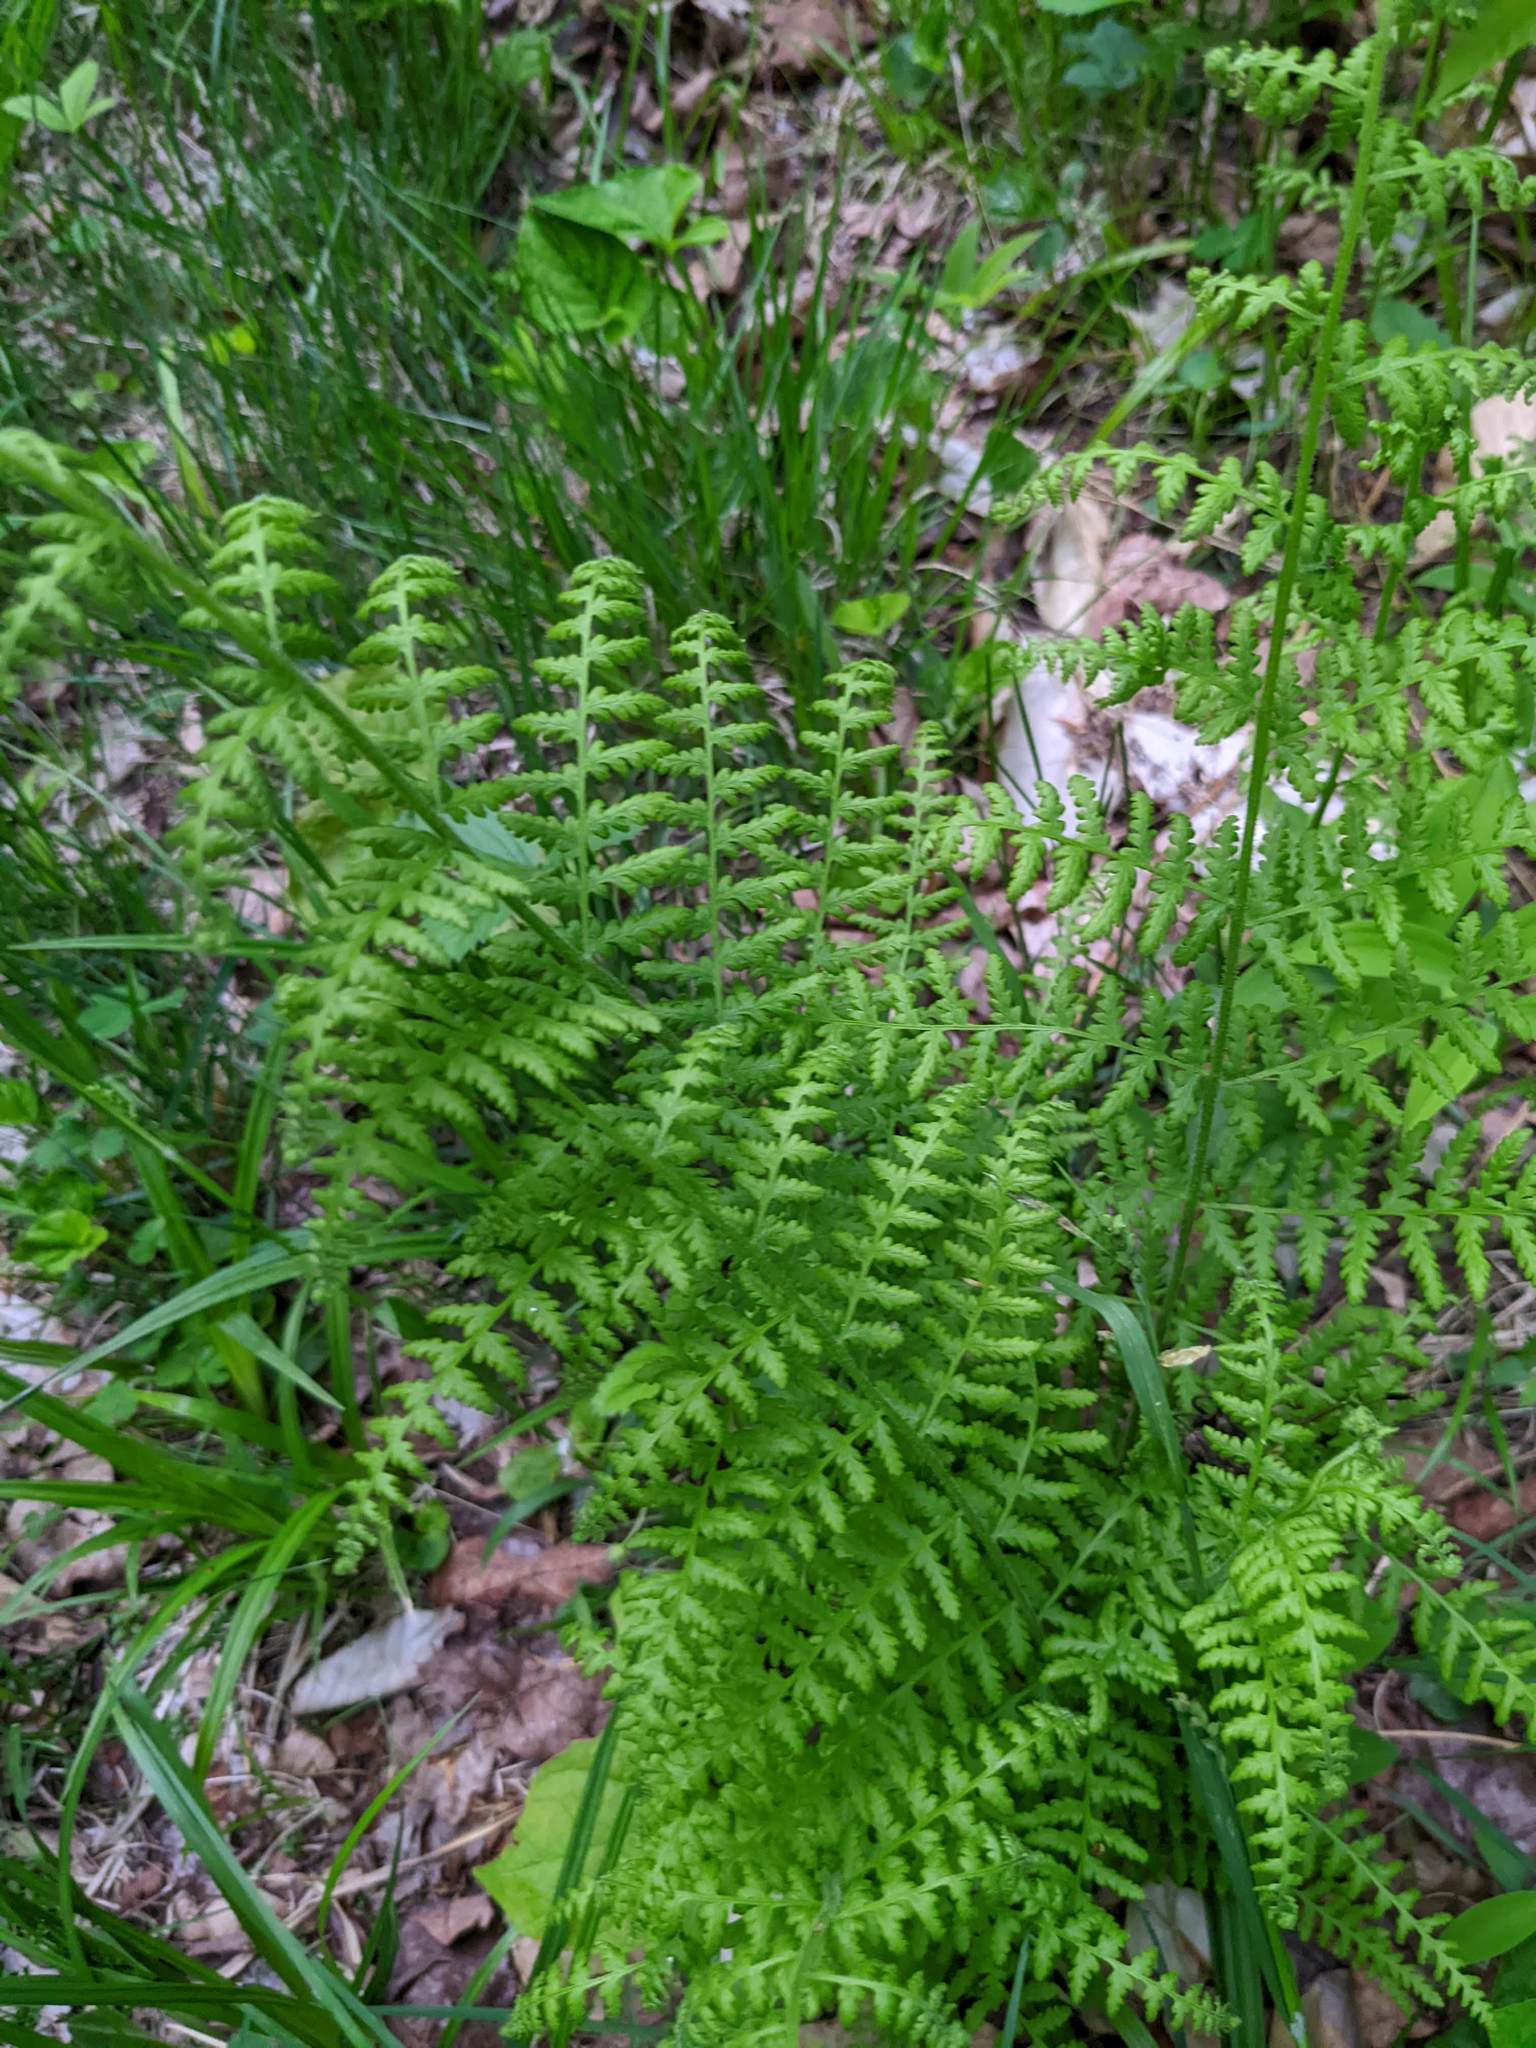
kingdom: Plantae
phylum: Tracheophyta
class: Polypodiopsida
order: Polypodiales
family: Dennstaedtiaceae
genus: Sitobolium
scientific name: Sitobolium punctilobum
